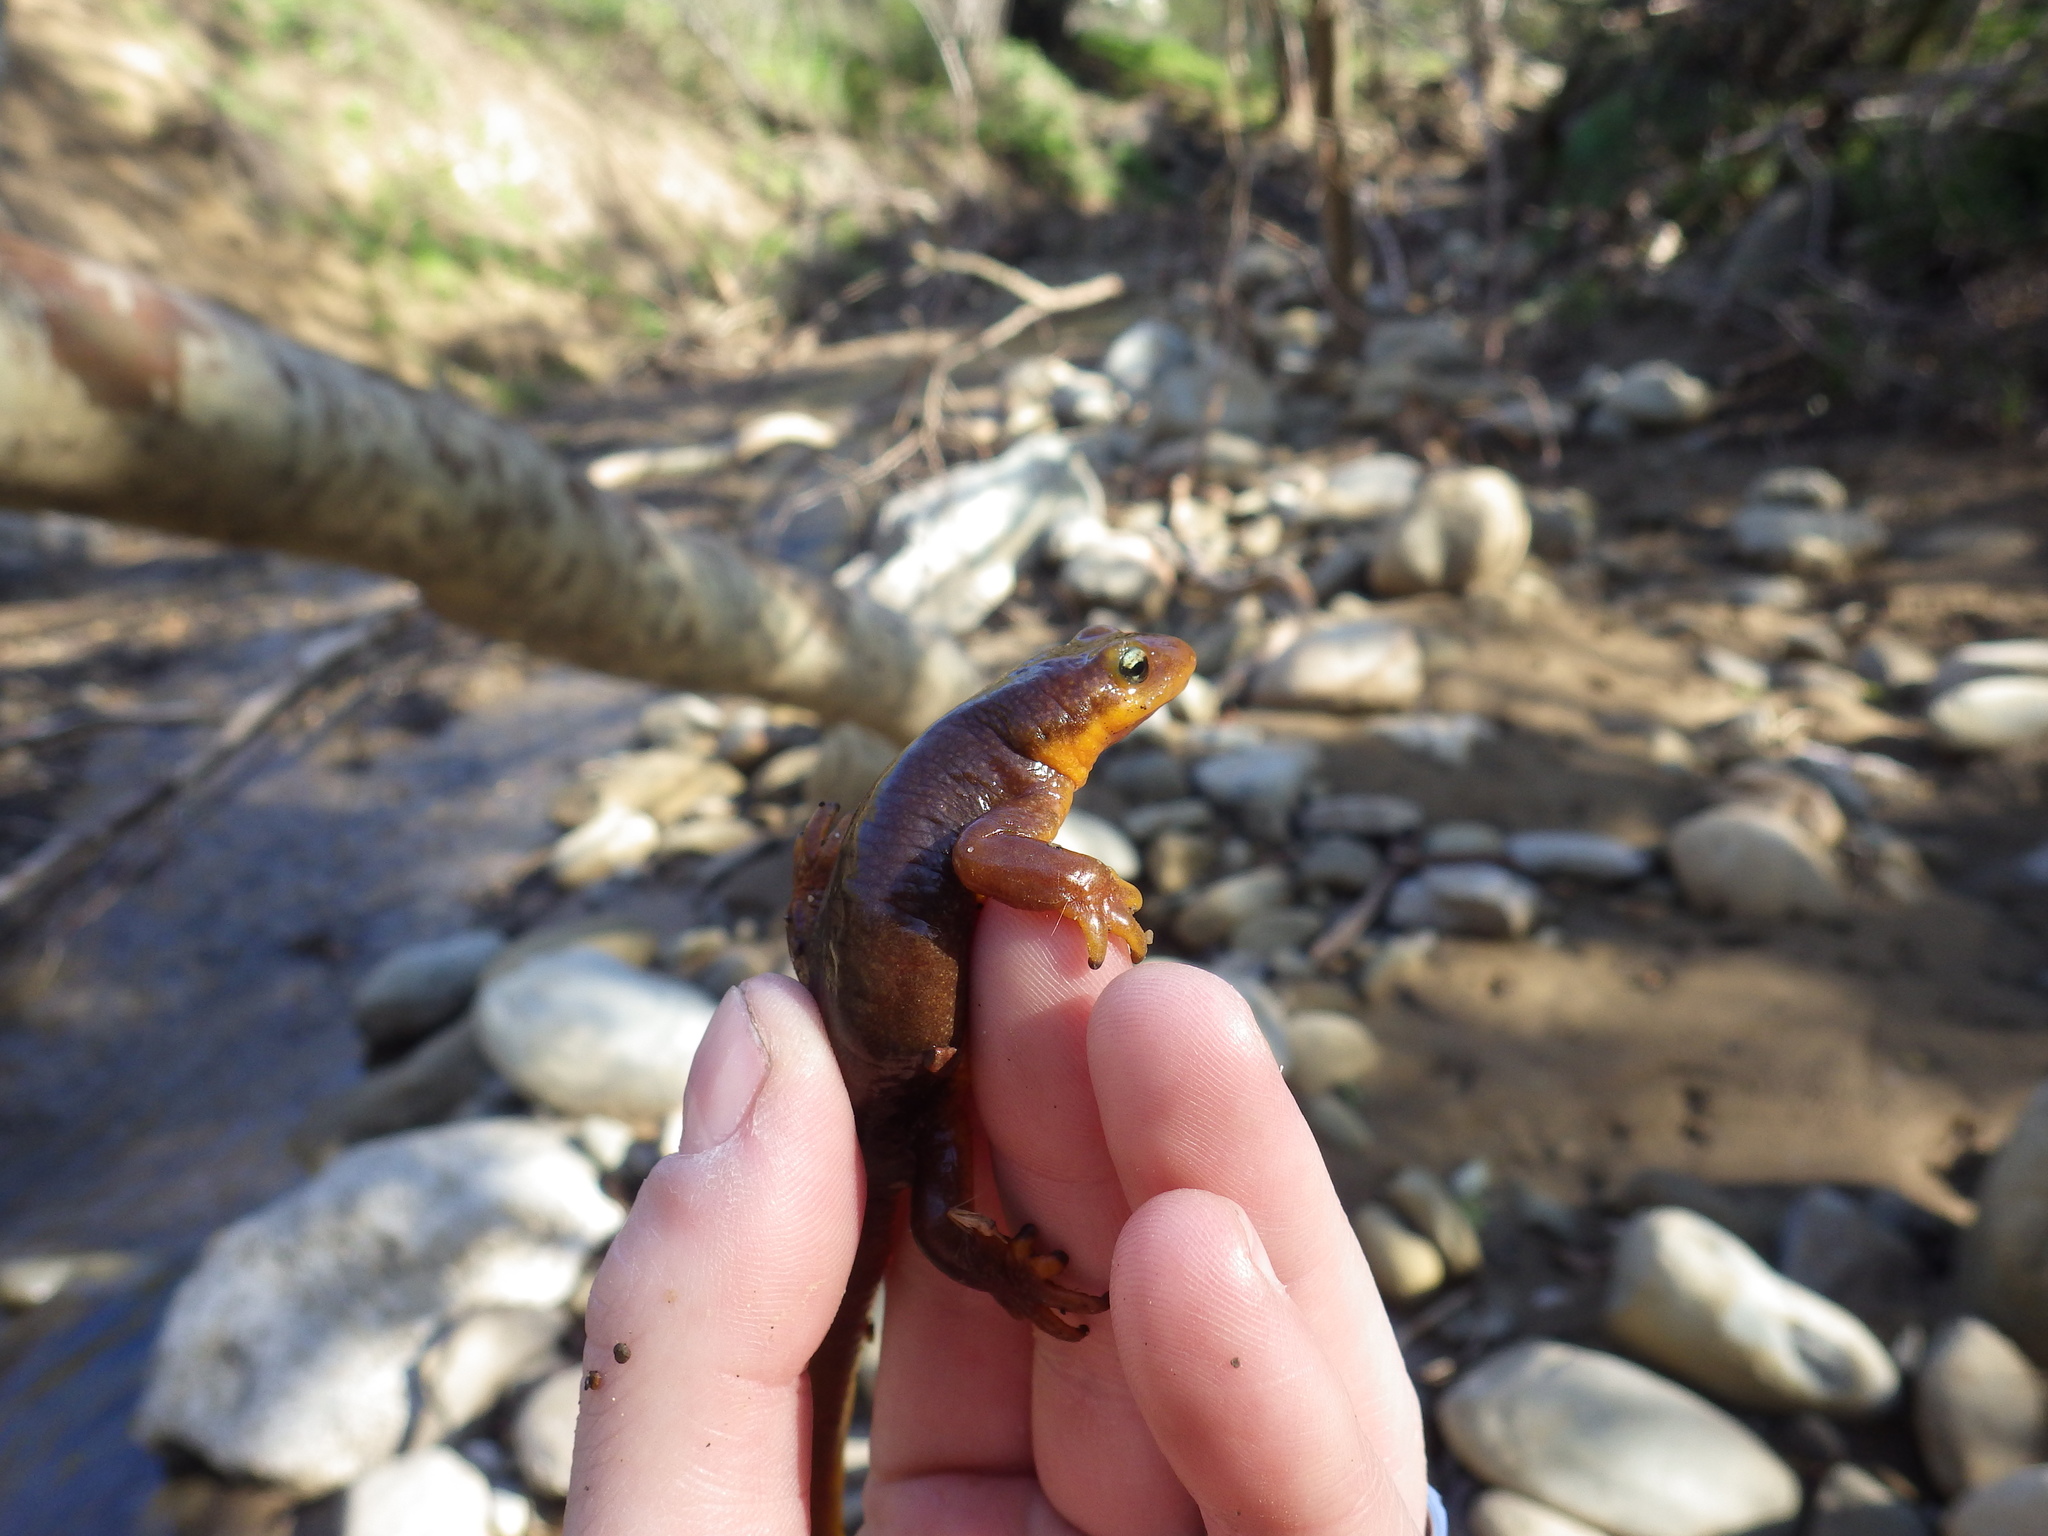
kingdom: Animalia
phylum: Chordata
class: Amphibia
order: Caudata
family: Salamandridae
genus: Taricha
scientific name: Taricha torosa
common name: California newt
